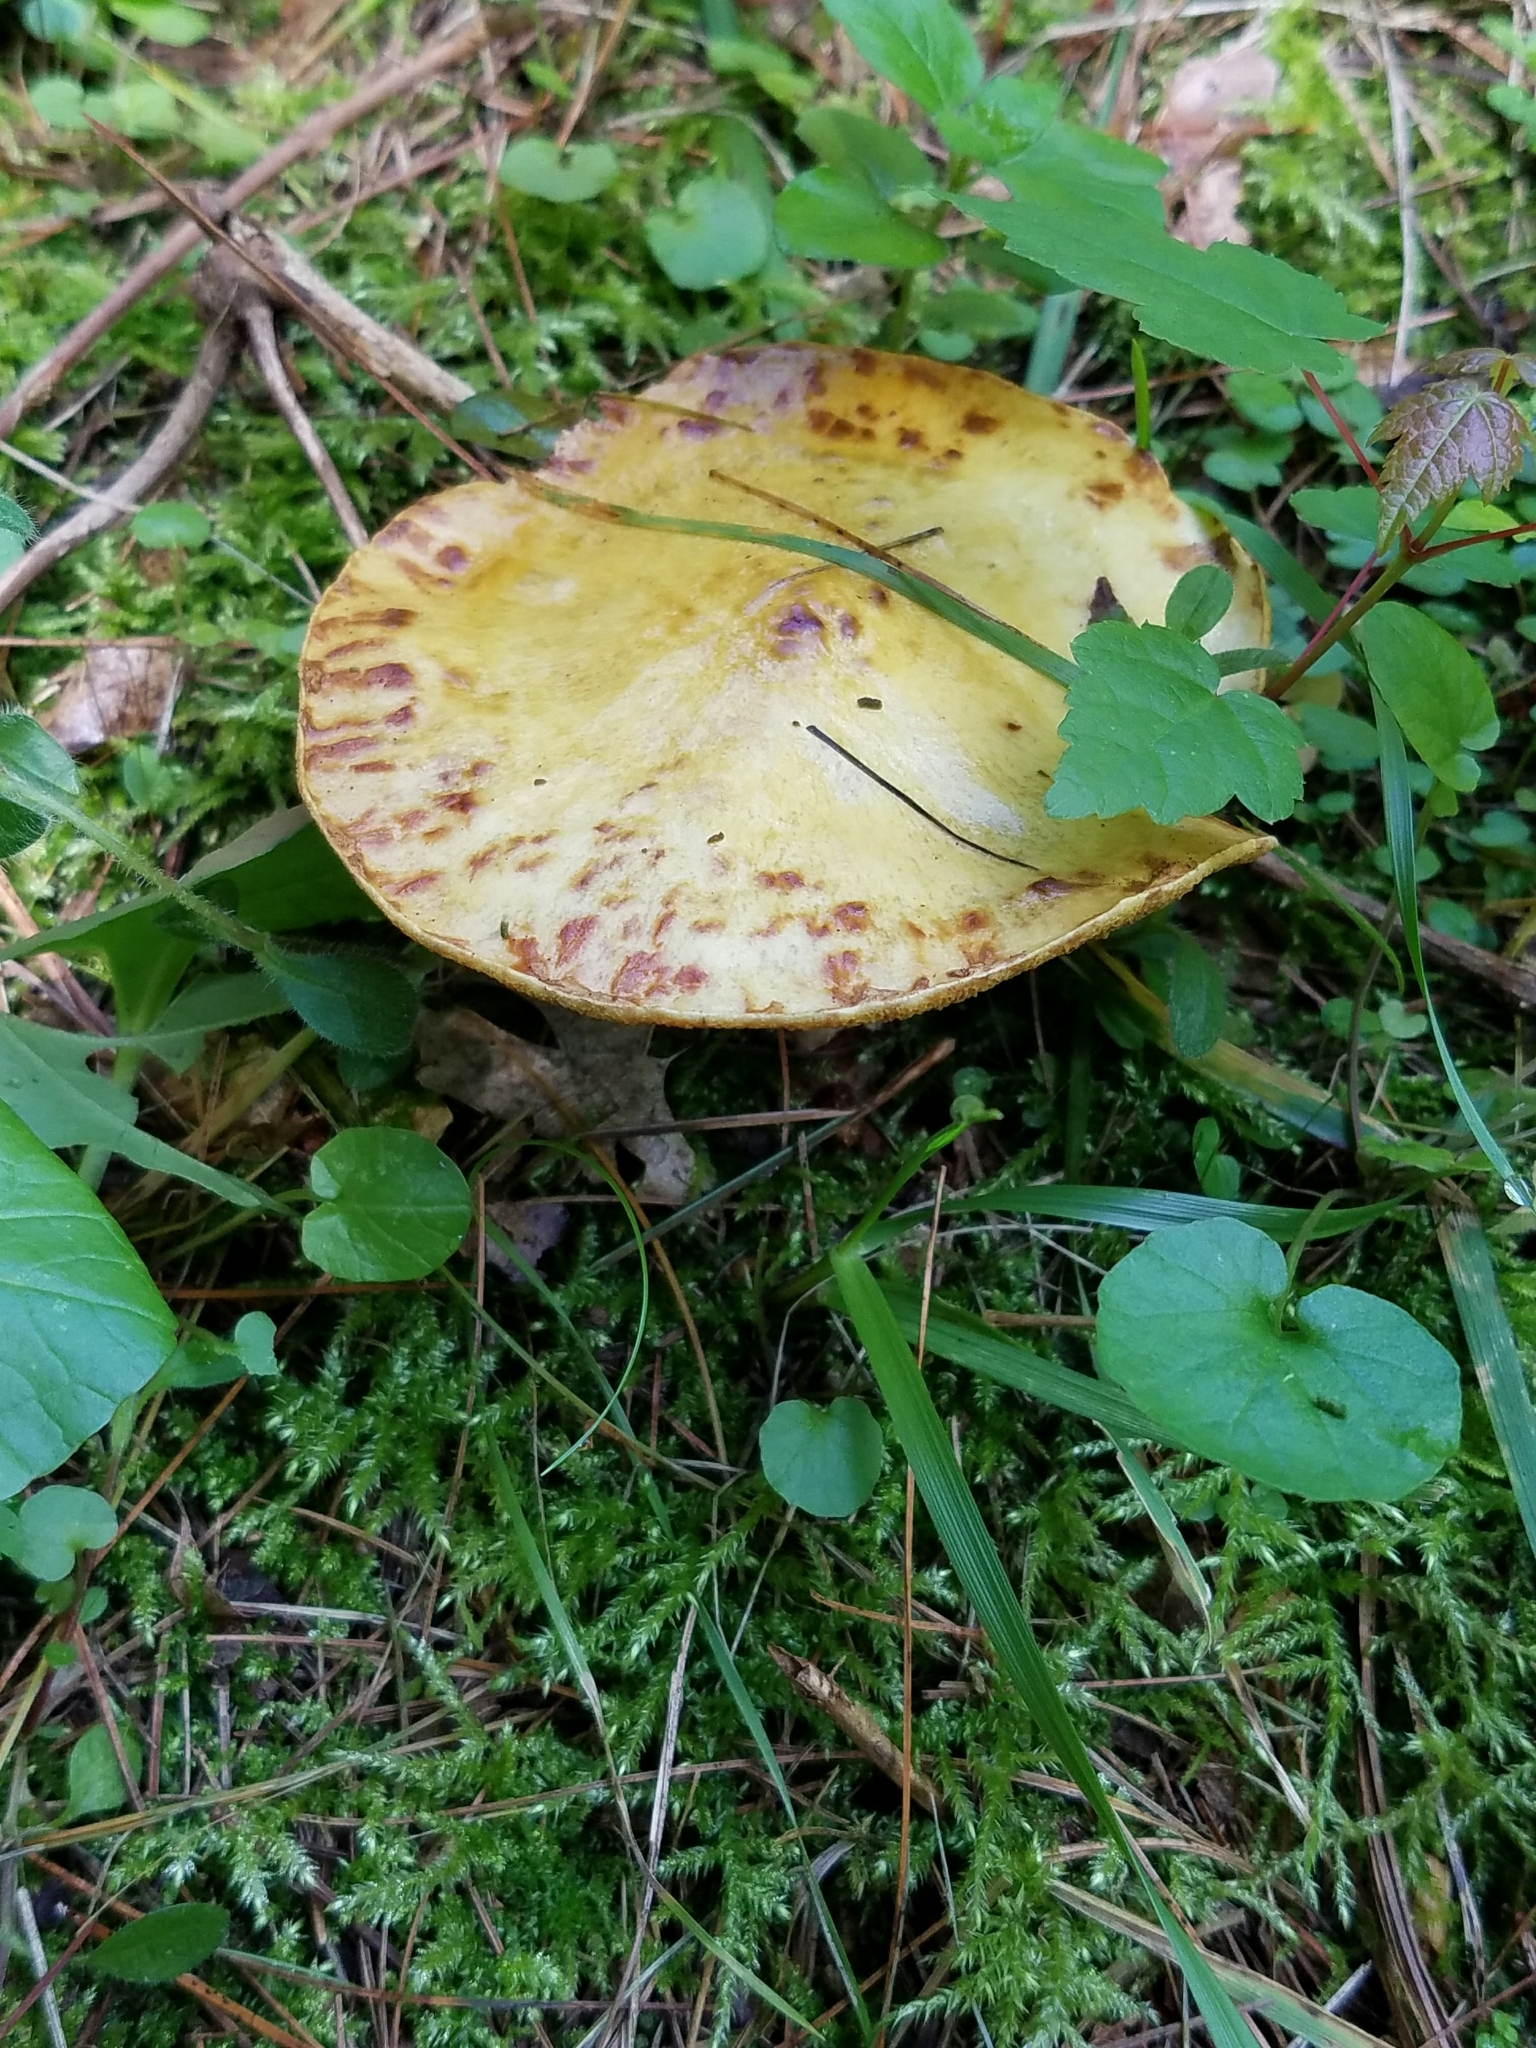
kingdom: Fungi
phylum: Basidiomycota
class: Agaricomycetes
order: Boletales
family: Suillaceae
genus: Suillus
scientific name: Suillus americanus
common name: Chicken fat mushroom
